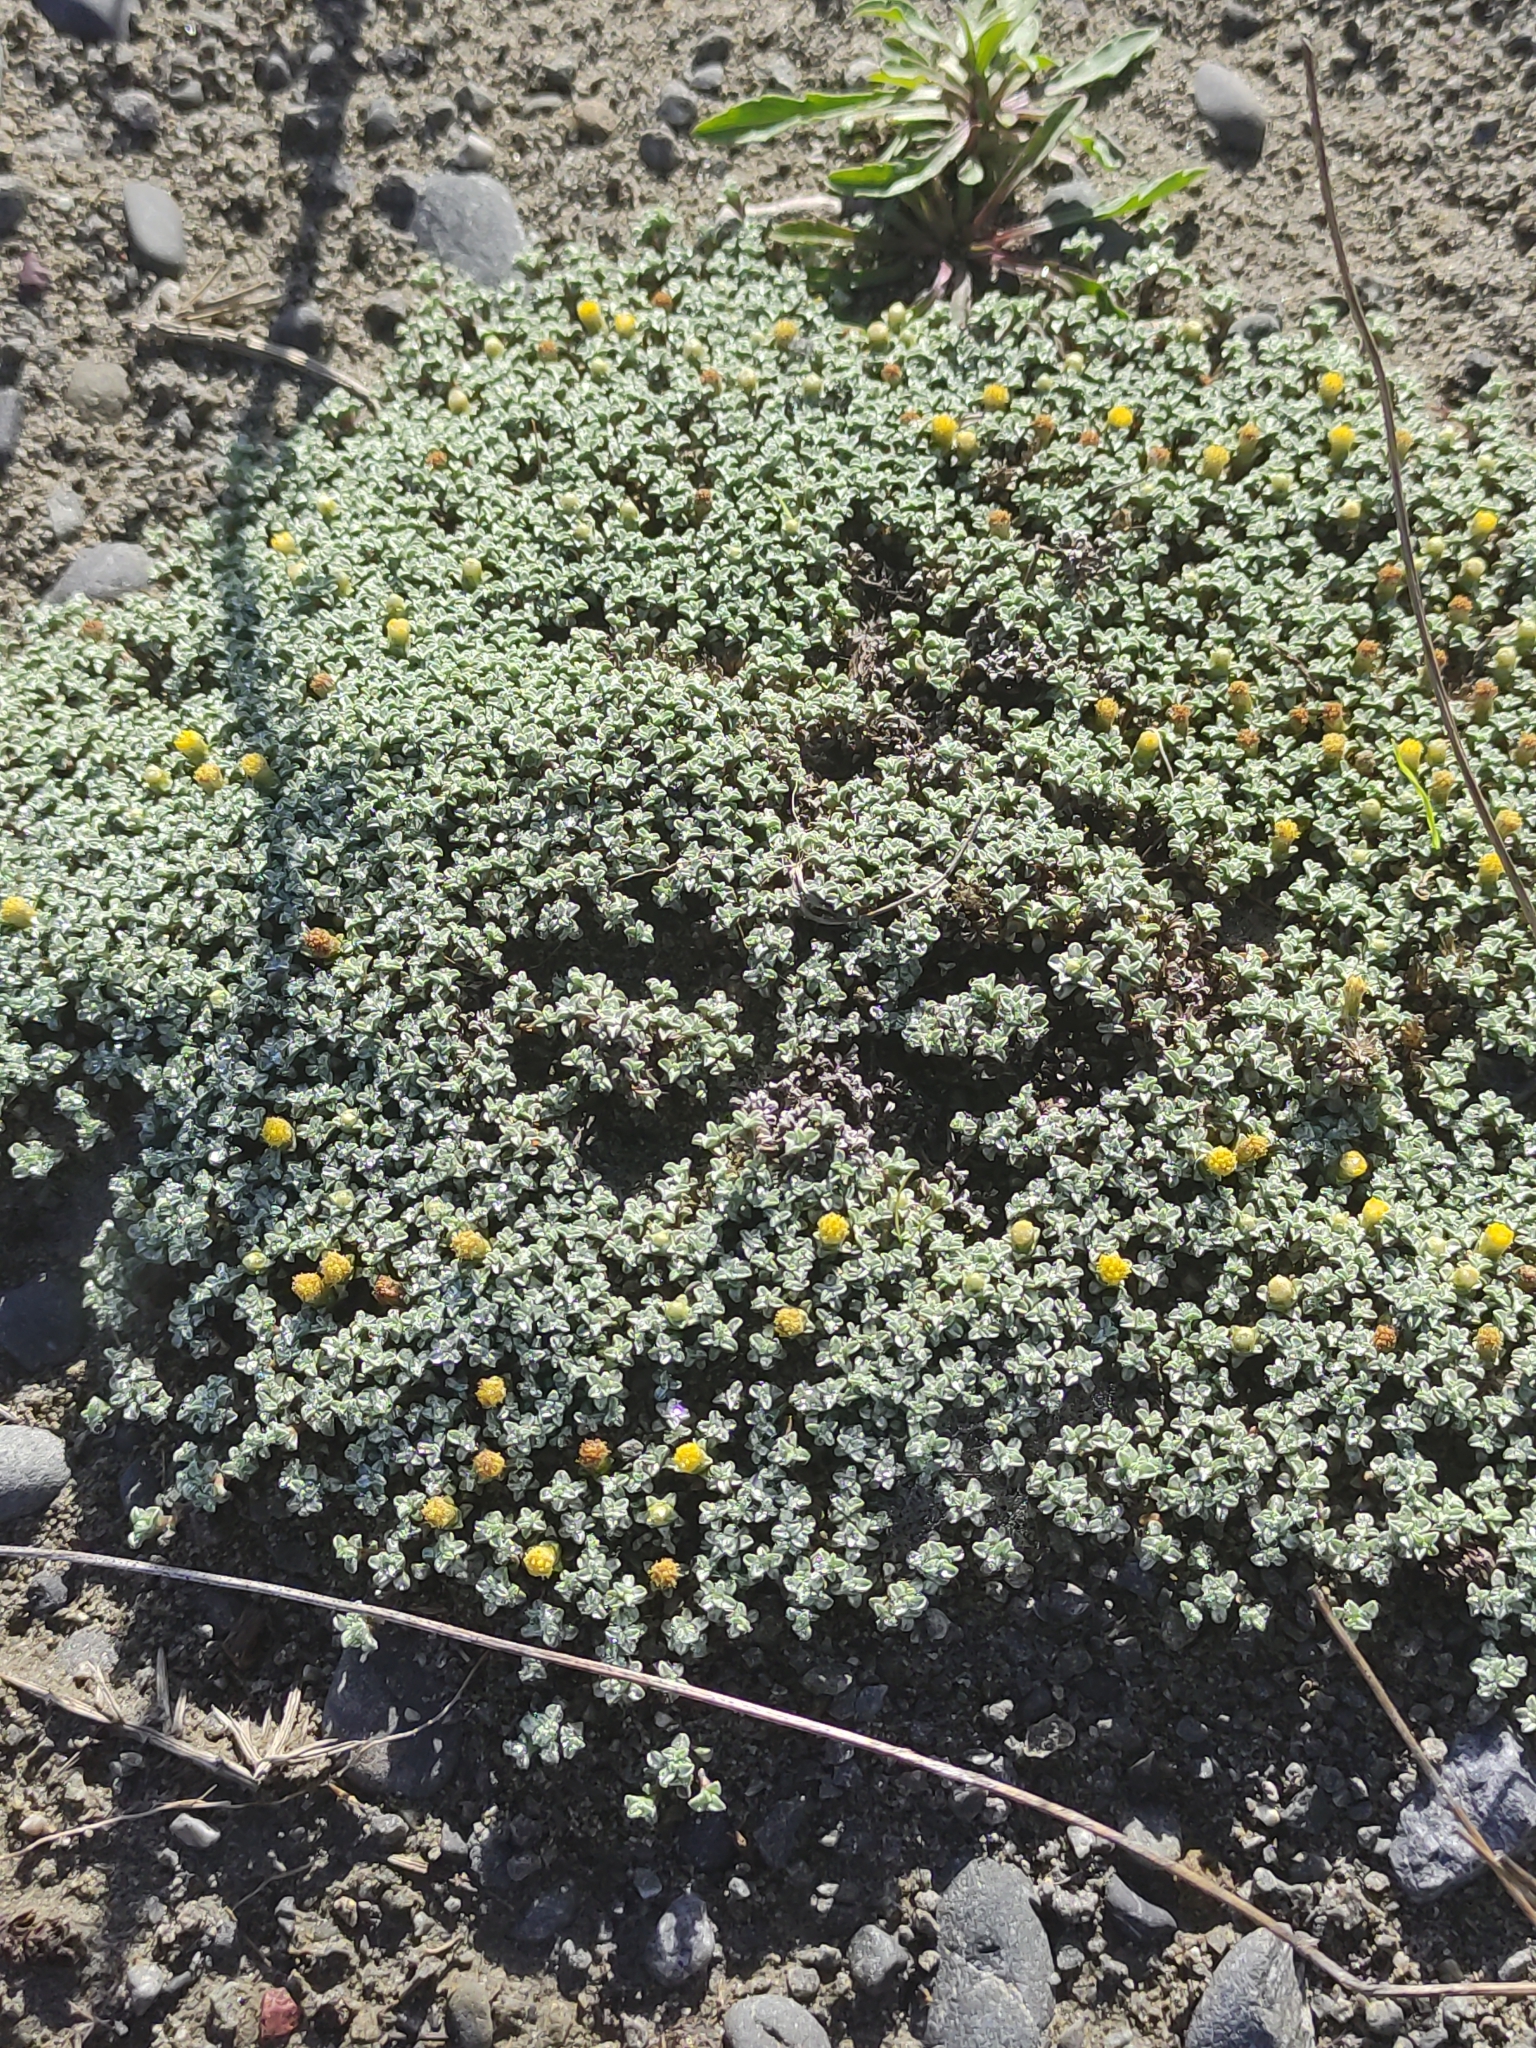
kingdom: Plantae
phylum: Tracheophyta
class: Magnoliopsida
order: Asterales
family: Asteraceae
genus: Raoulia
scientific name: Raoulia hookeri
